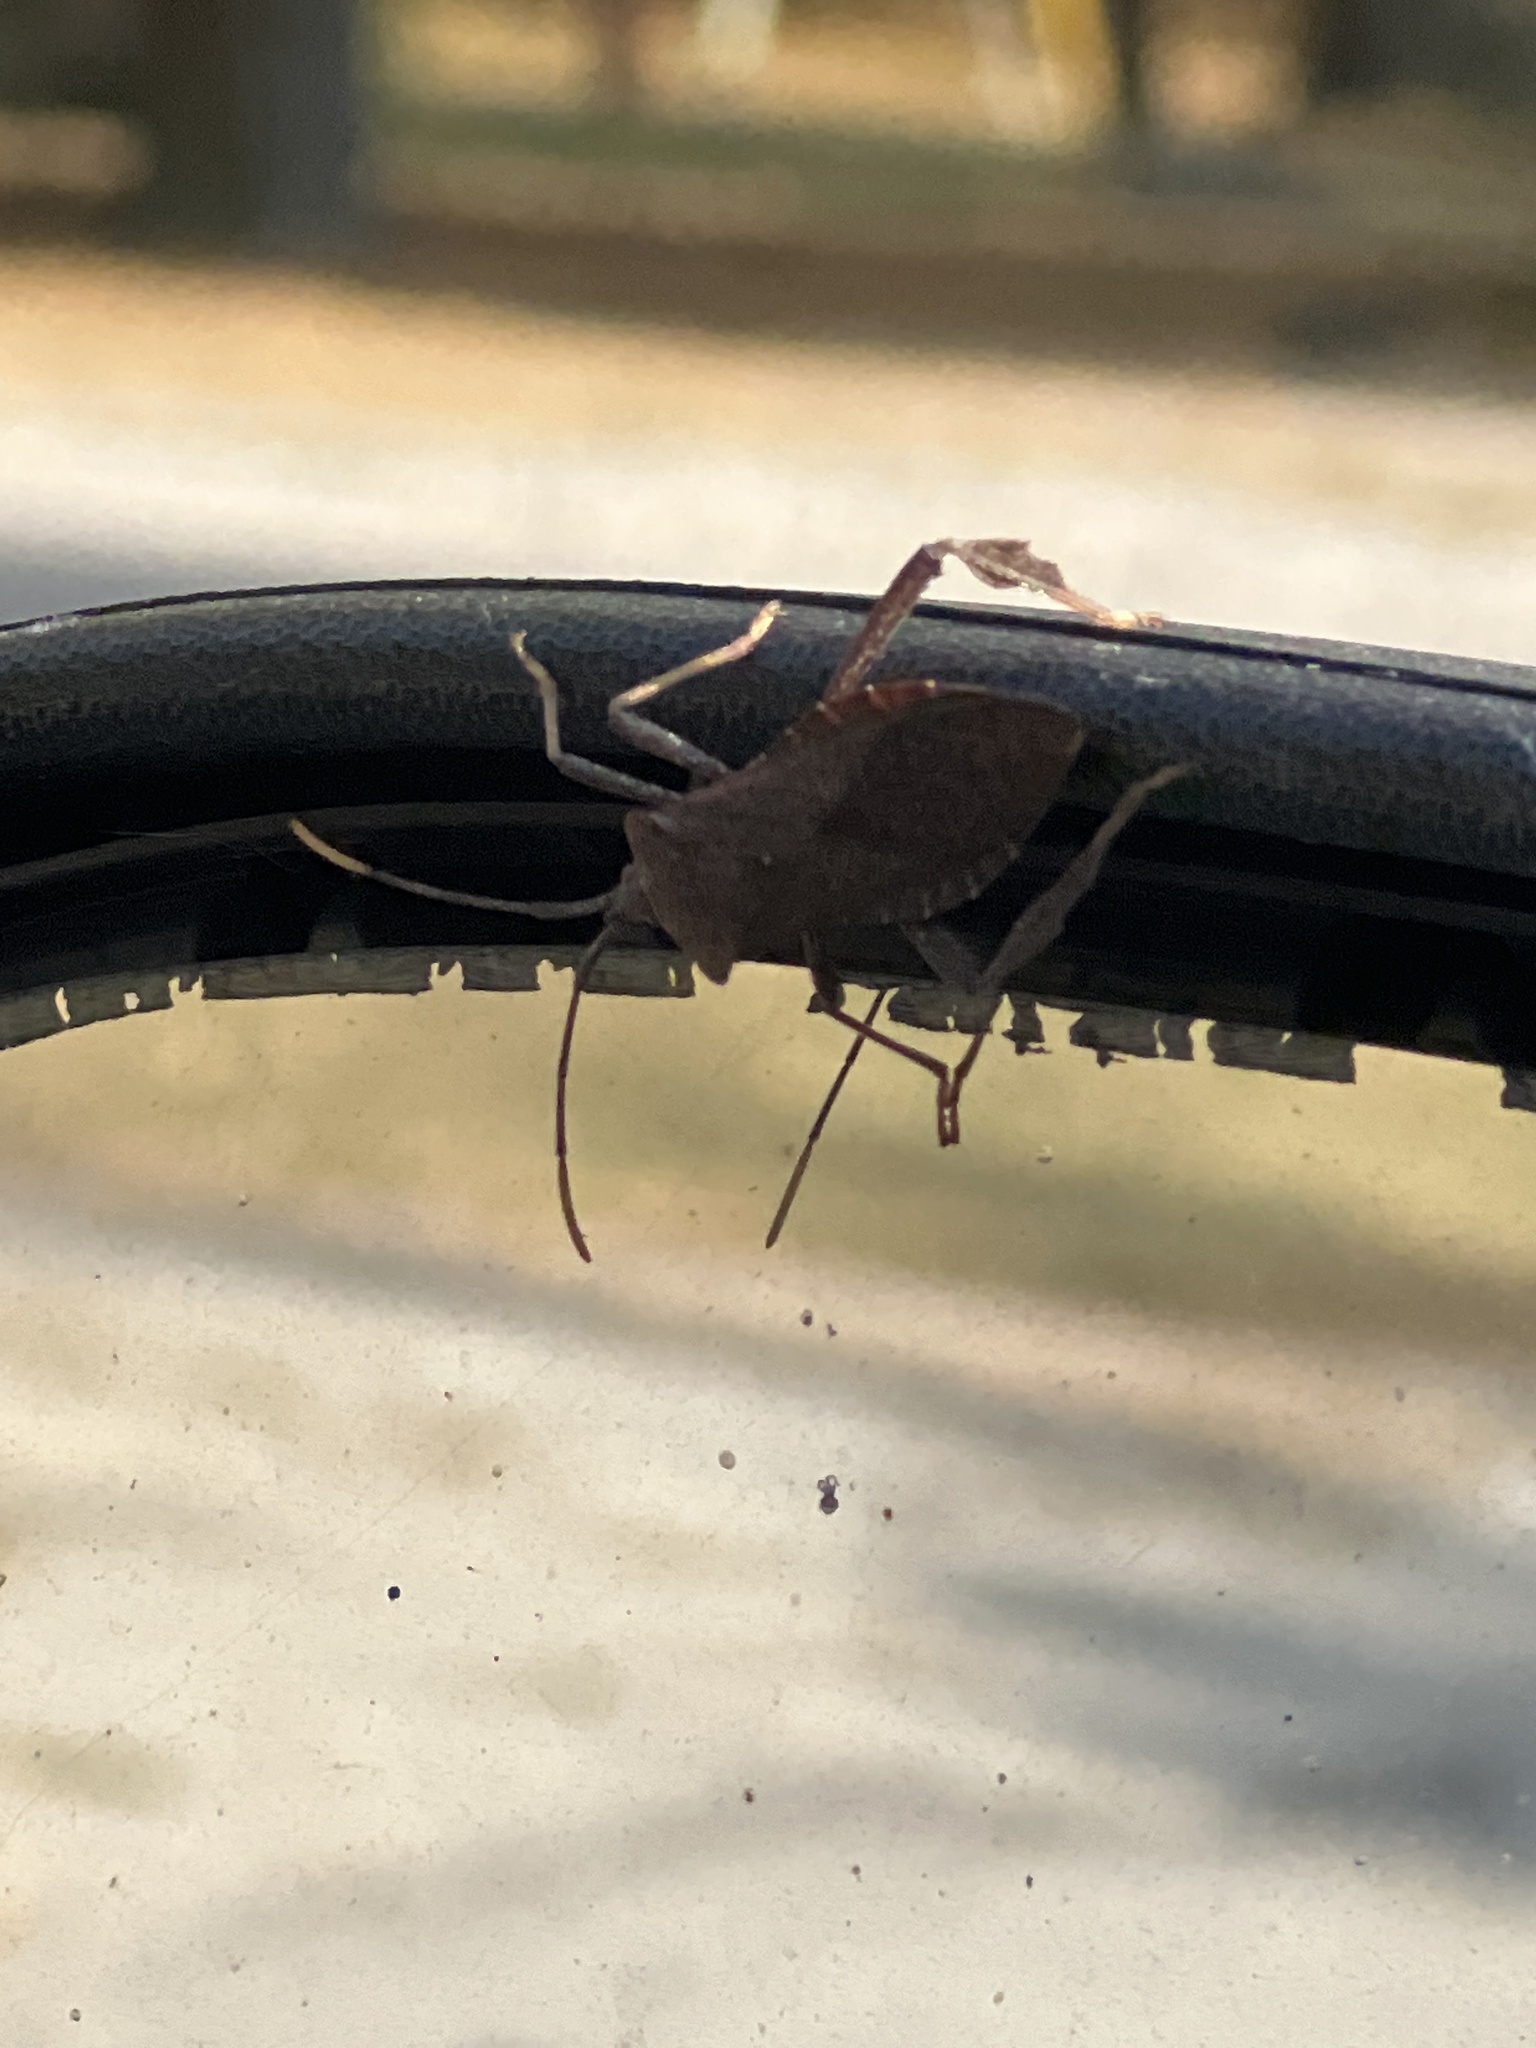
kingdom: Animalia
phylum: Arthropoda
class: Insecta
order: Hemiptera
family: Coreidae
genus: Acanthocephala
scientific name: Acanthocephala declivis
